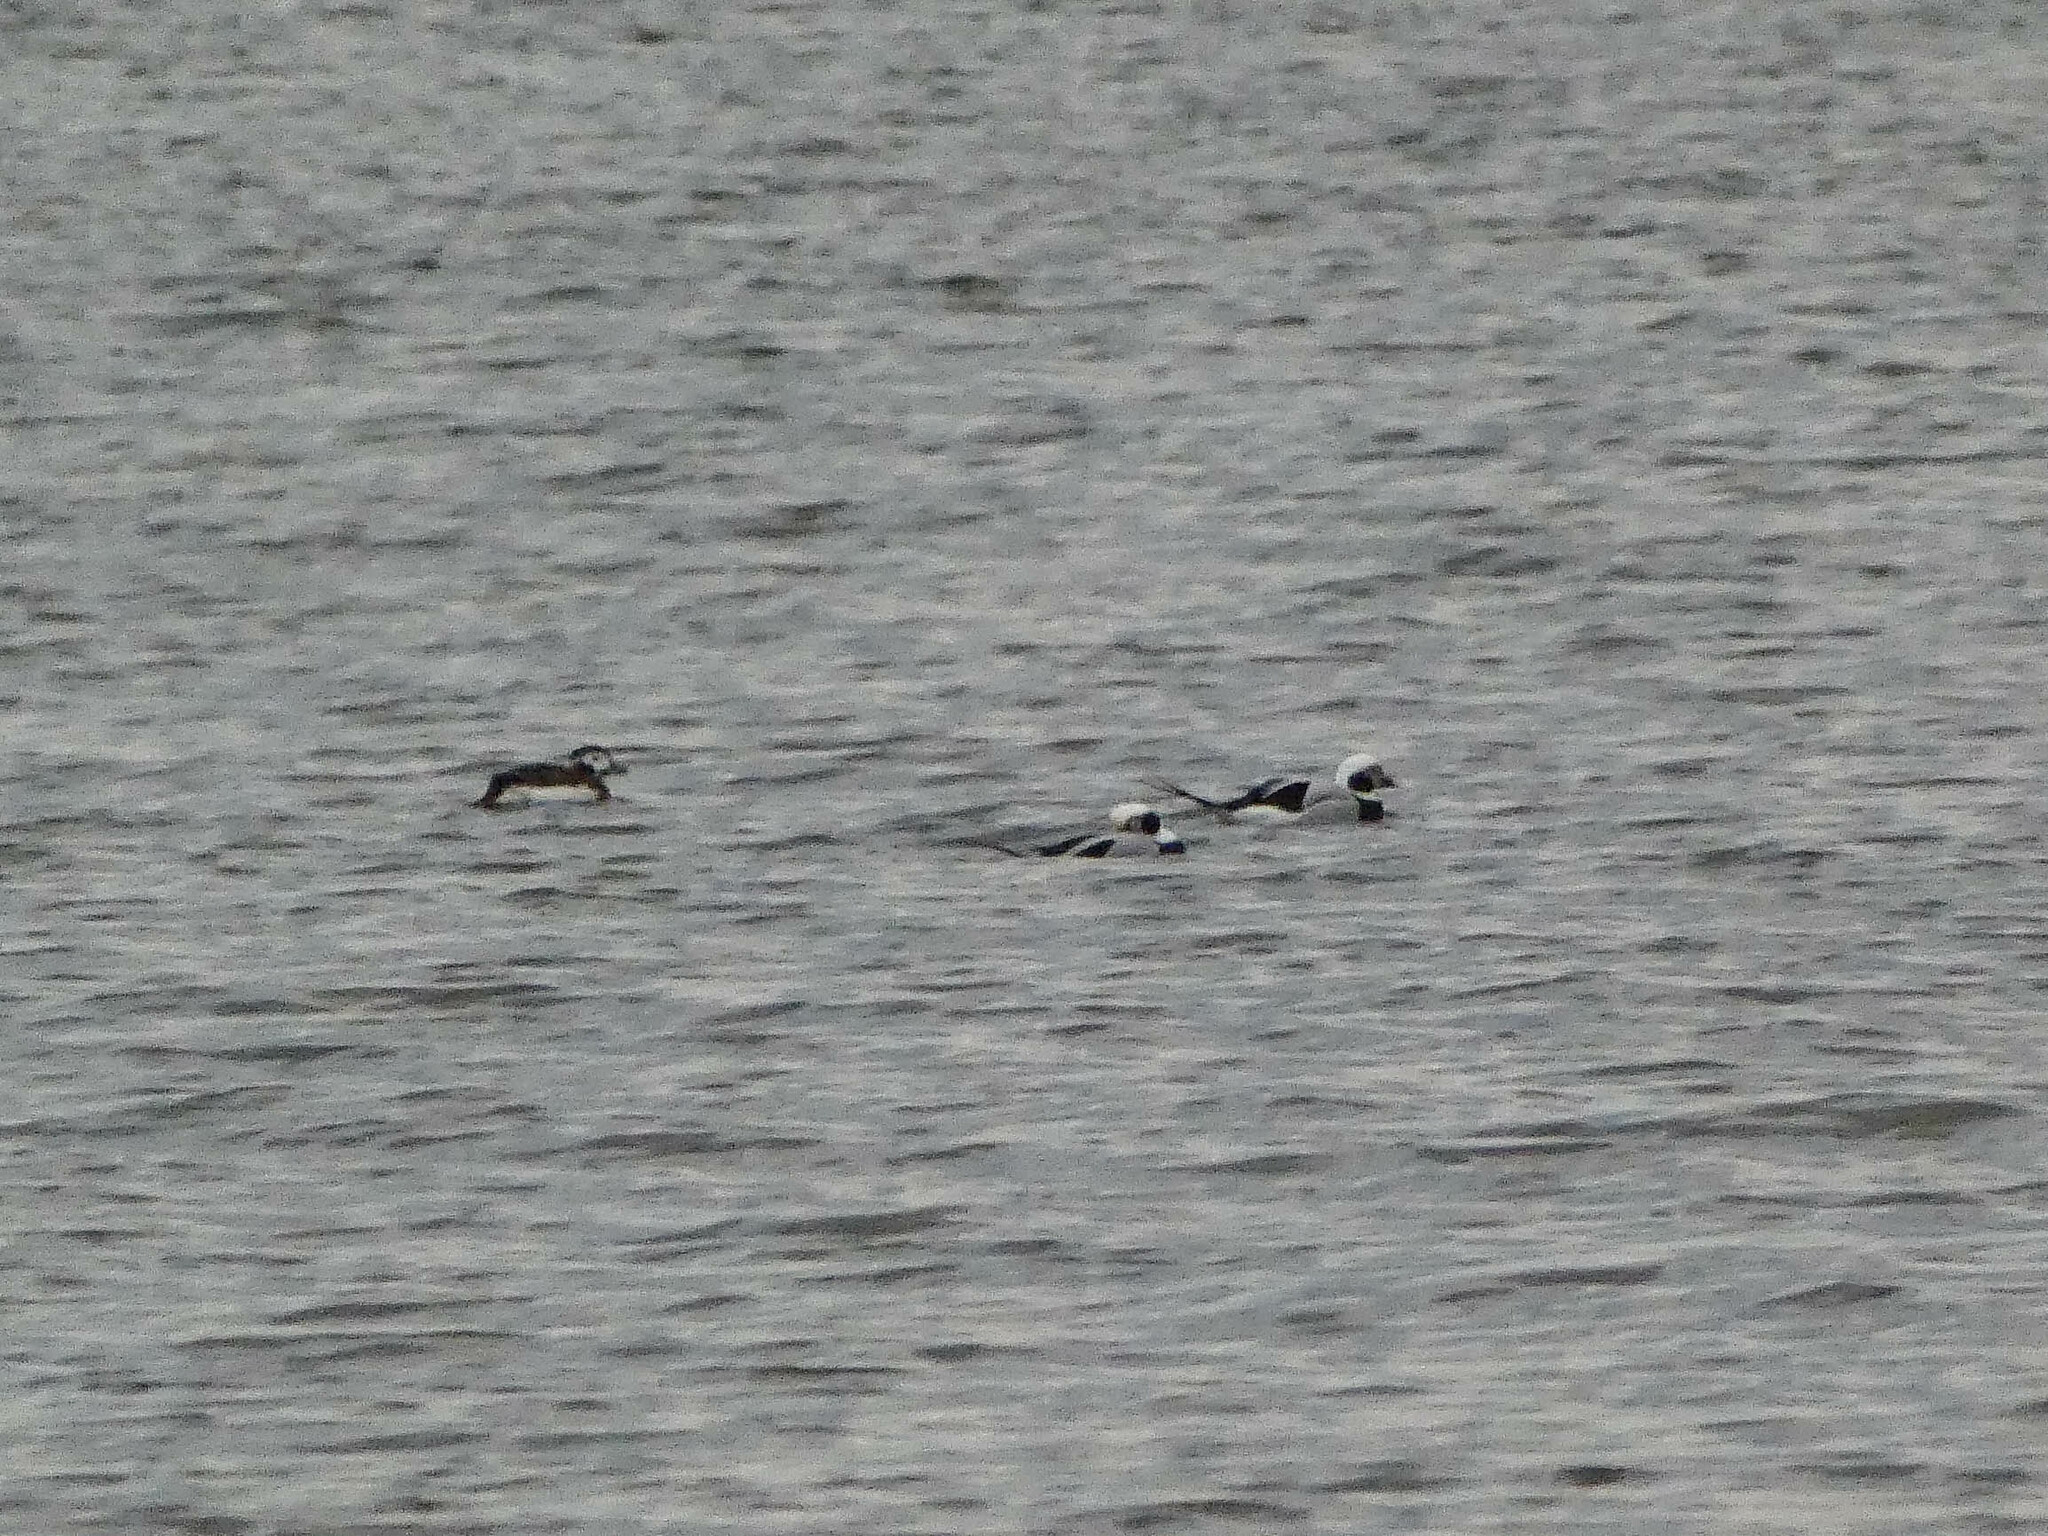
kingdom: Animalia
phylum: Chordata
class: Aves
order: Anseriformes
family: Anatidae
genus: Clangula
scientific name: Clangula hyemalis
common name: Long-tailed duck
